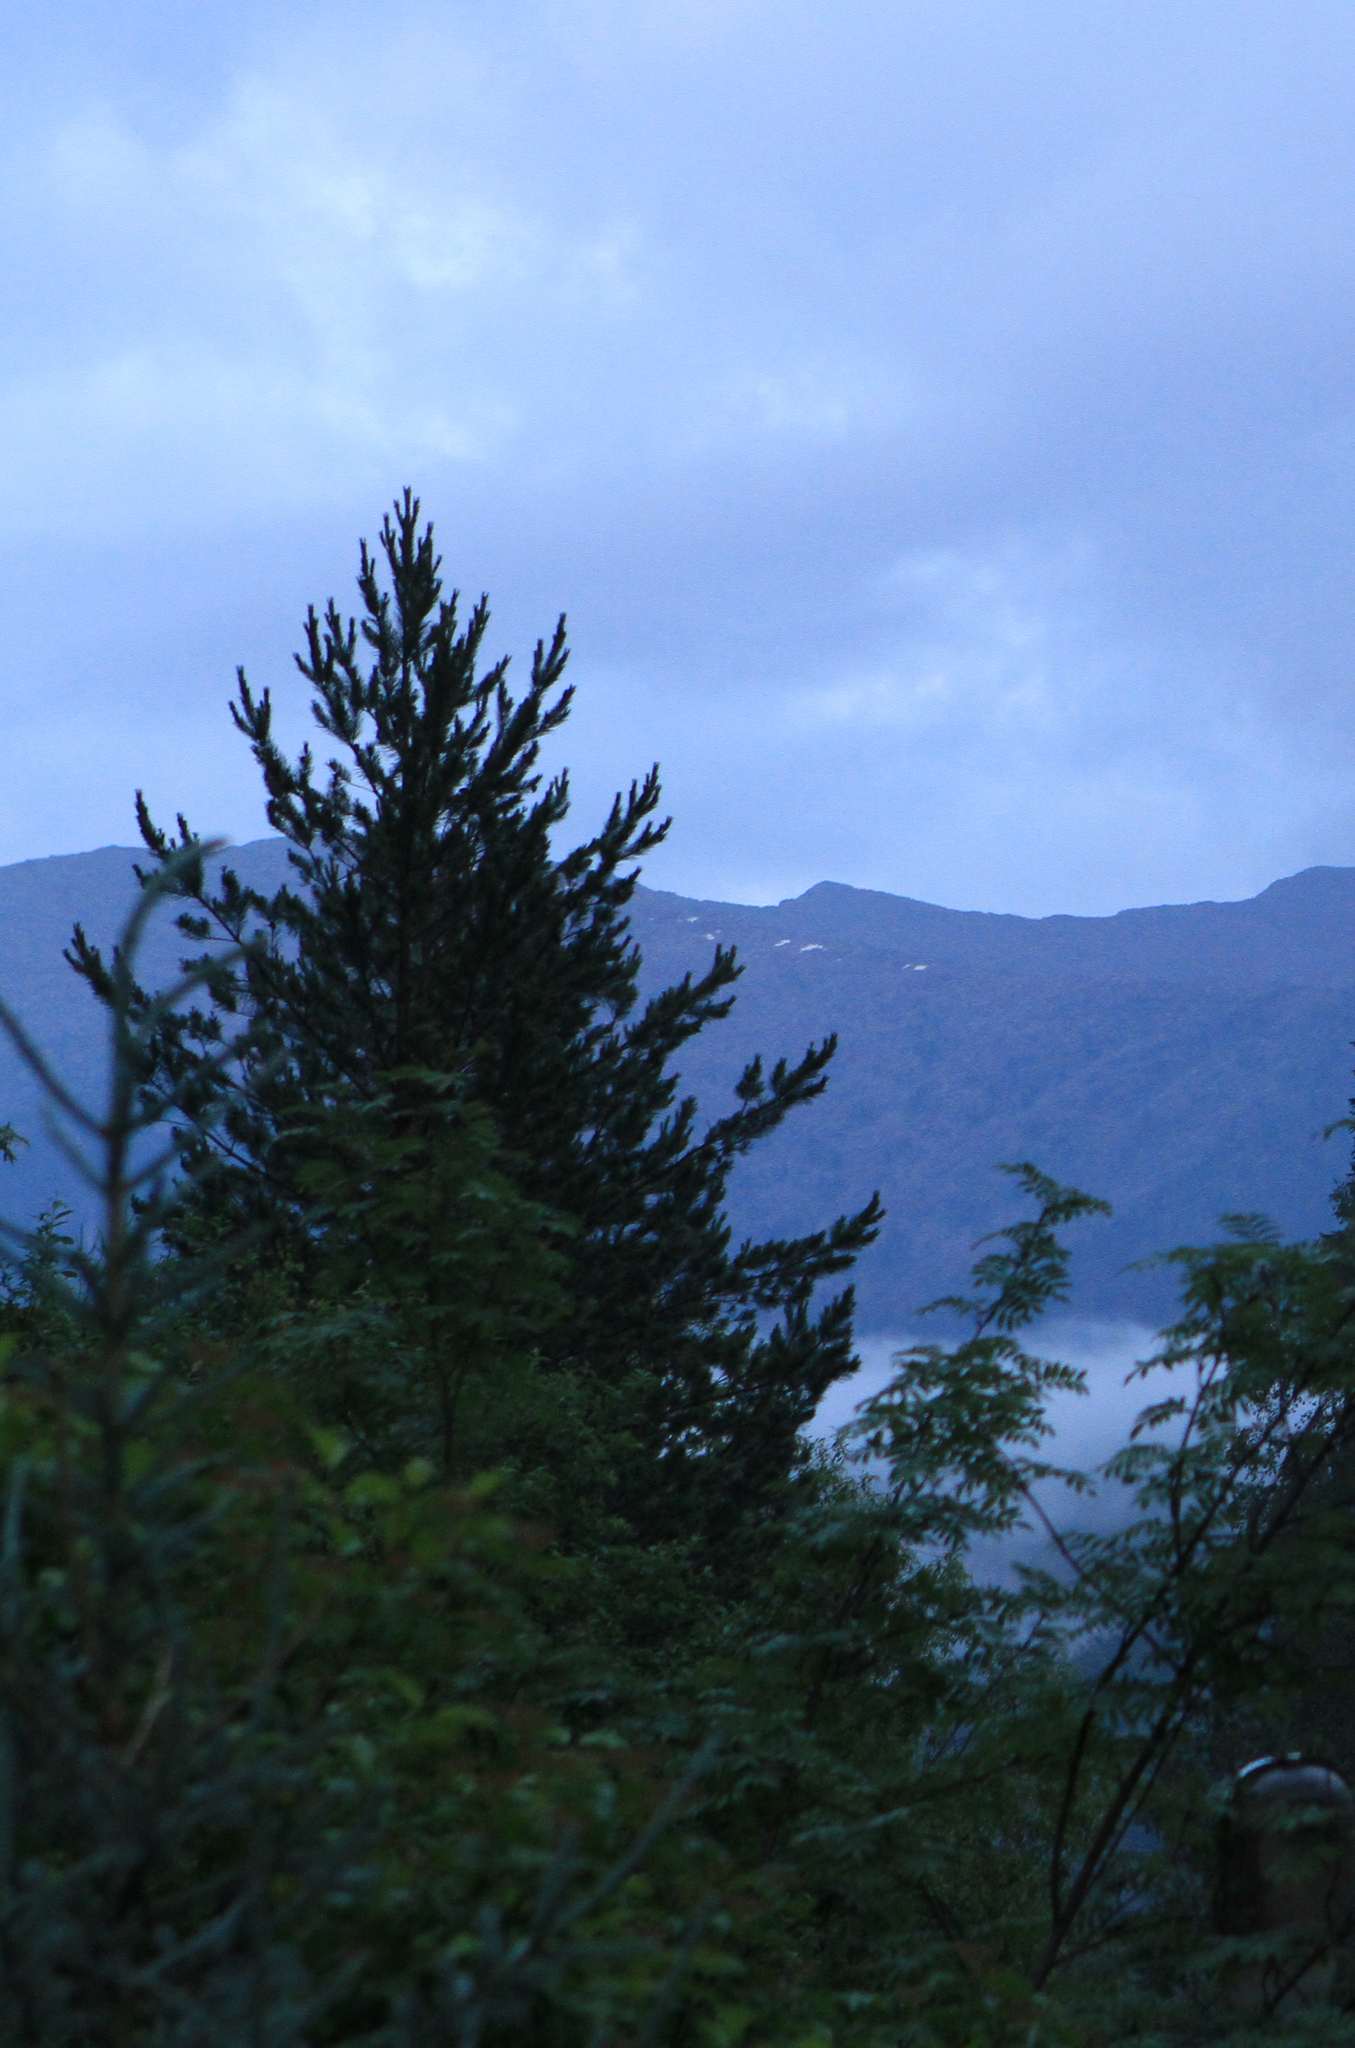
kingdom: Plantae
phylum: Tracheophyta
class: Pinopsida
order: Pinales
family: Pinaceae
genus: Pinus
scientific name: Pinus sylvestris
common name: Scots pine
